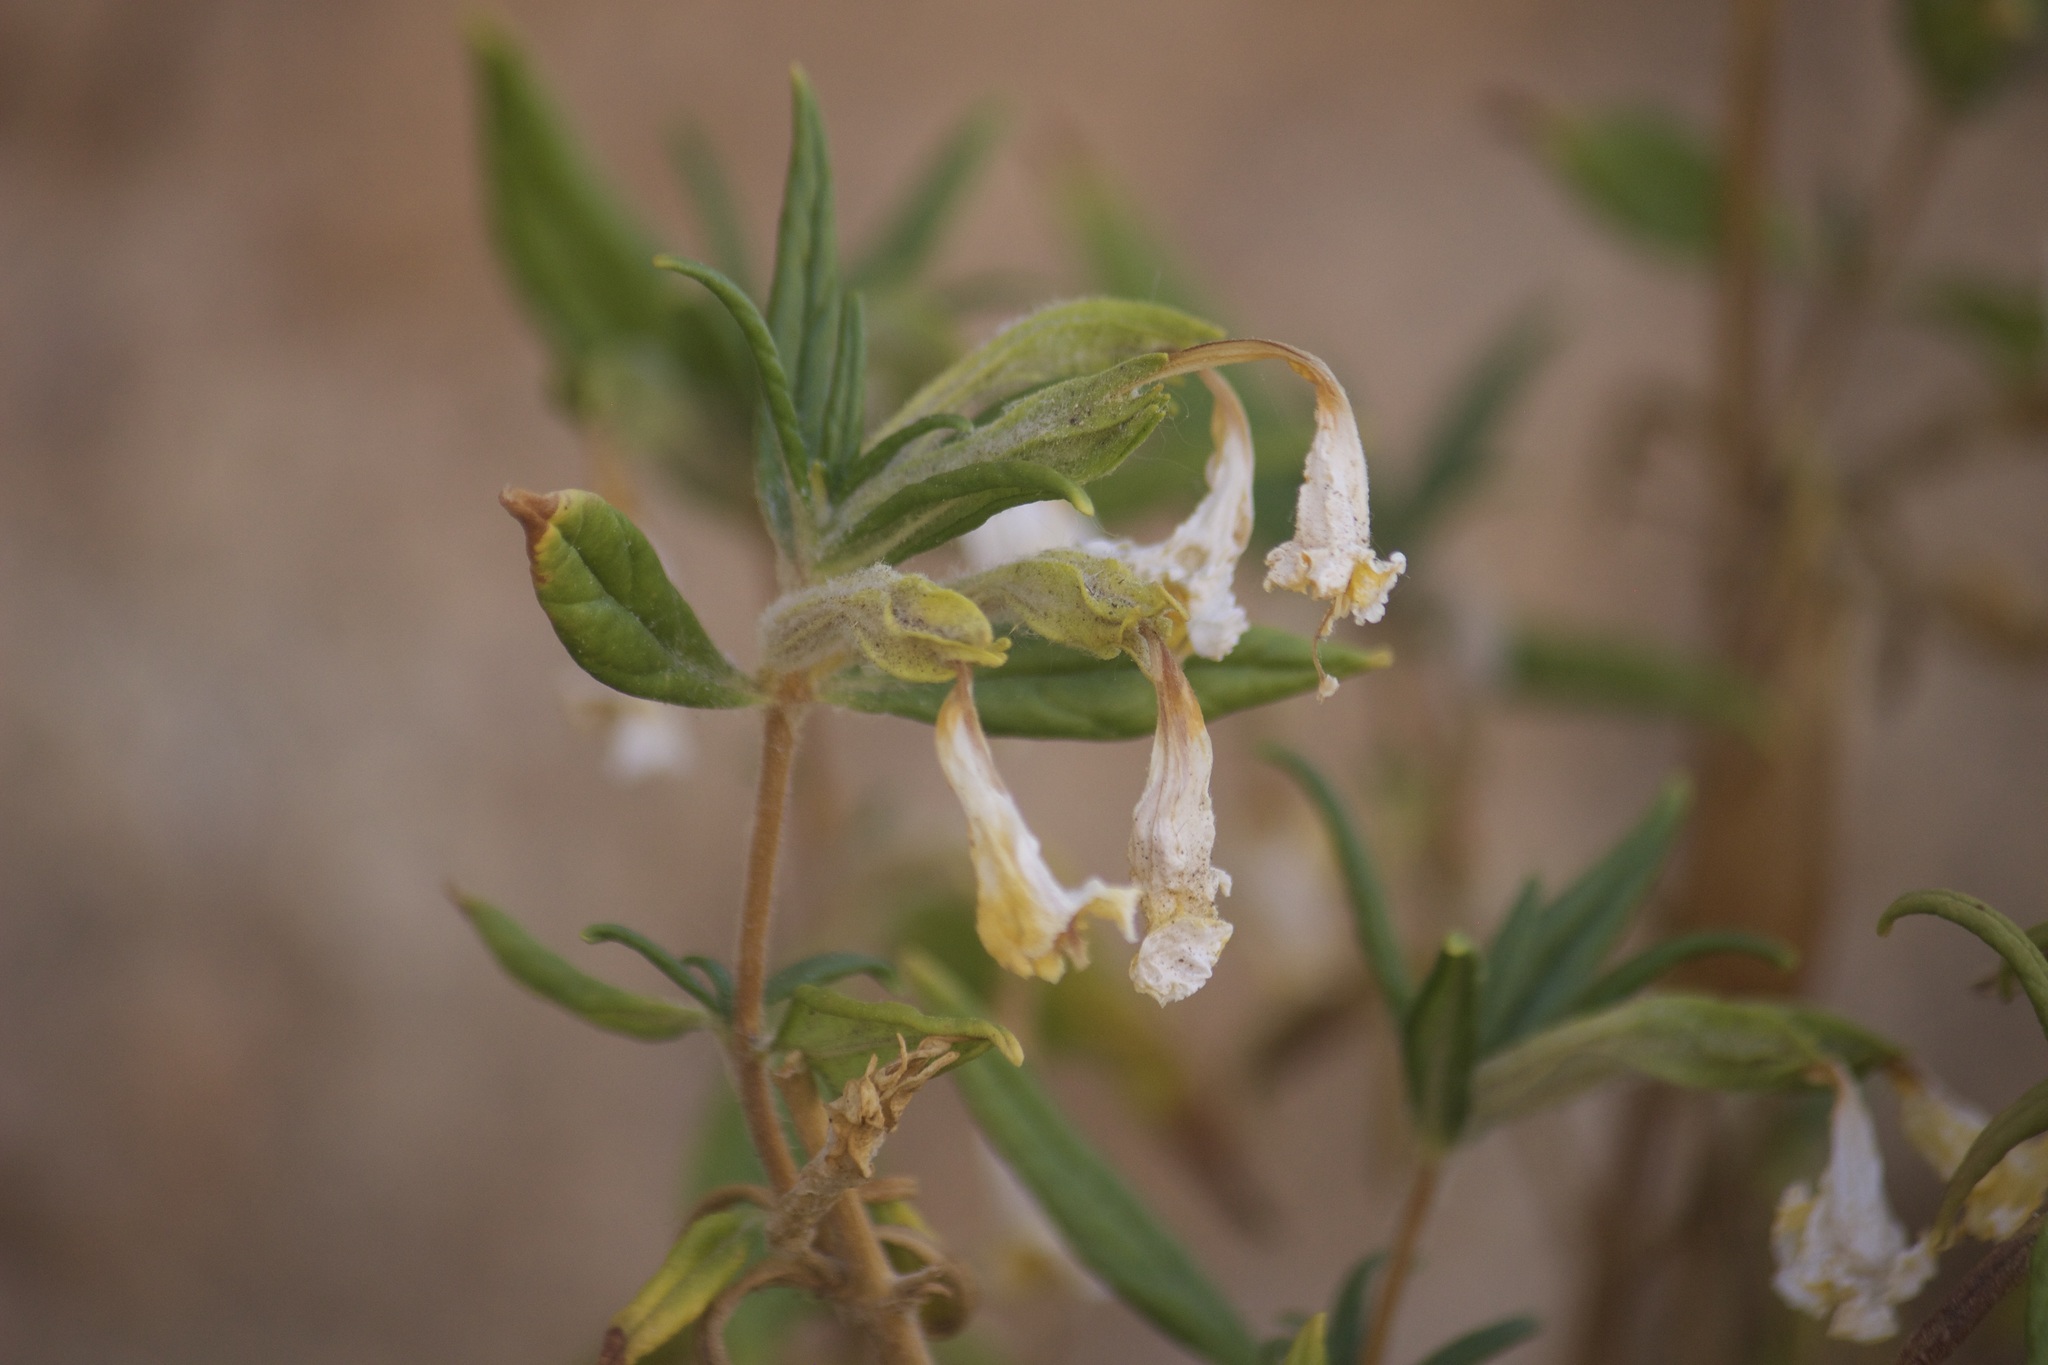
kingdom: Plantae
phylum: Tracheophyta
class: Magnoliopsida
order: Lamiales
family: Phrymaceae
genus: Diplacus
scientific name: Diplacus calycinus
